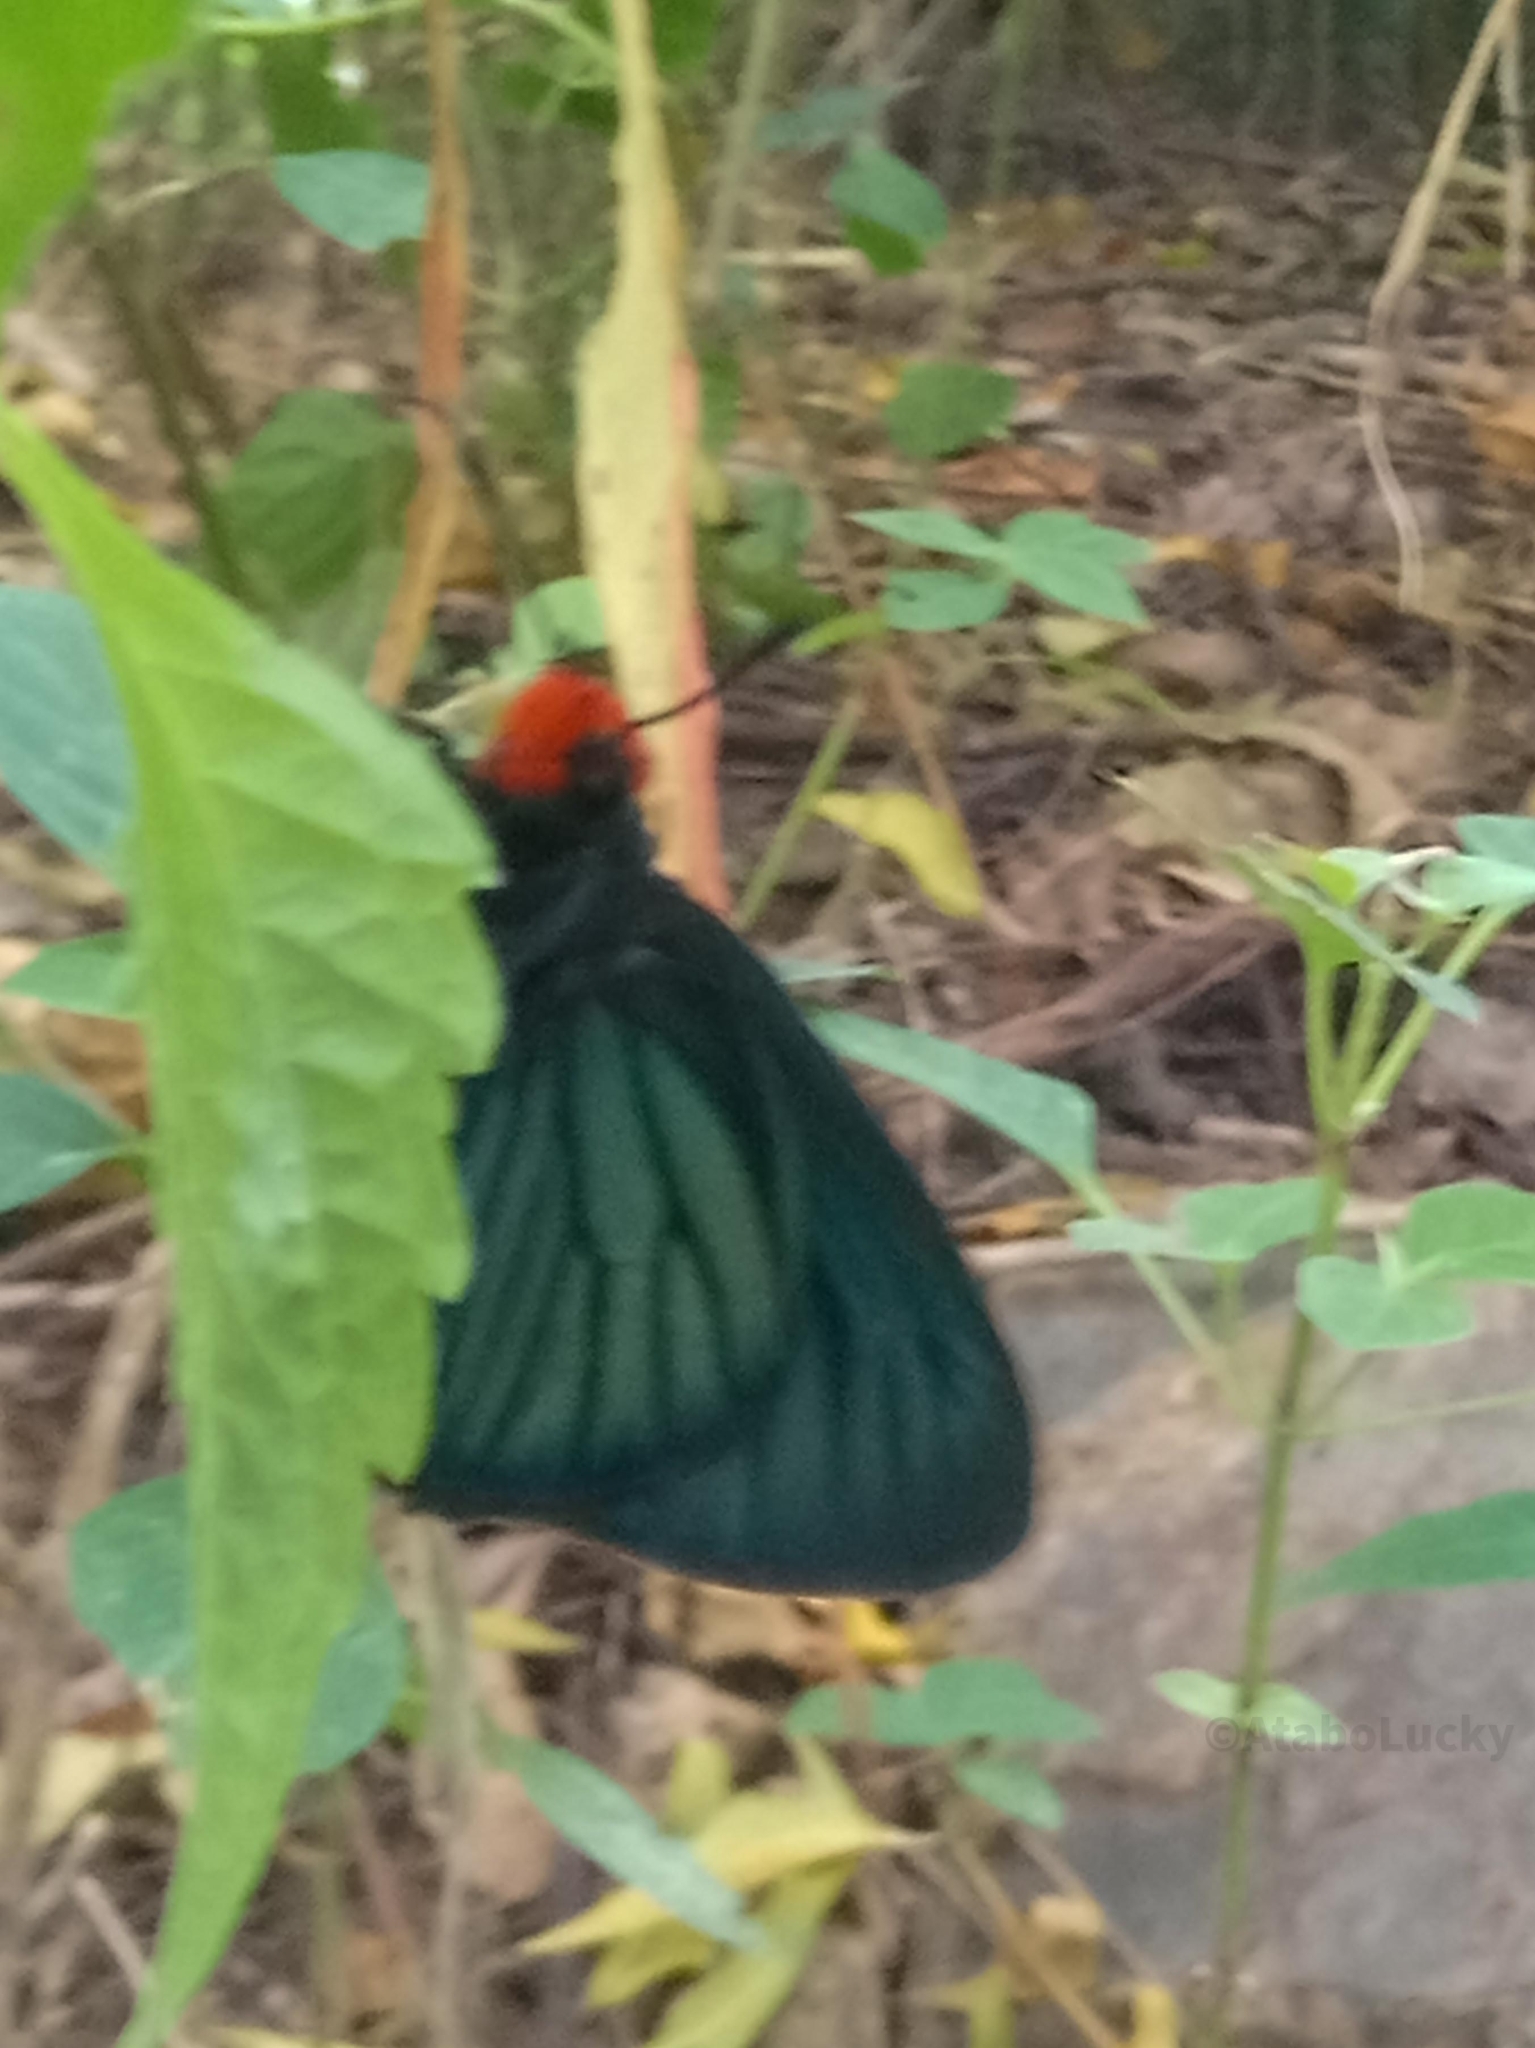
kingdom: Animalia
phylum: Arthropoda
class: Insecta
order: Lepidoptera
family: Hesperiidae
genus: Pyrrhochalcia
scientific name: Pyrrhochalcia iphis
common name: African giant skipper
